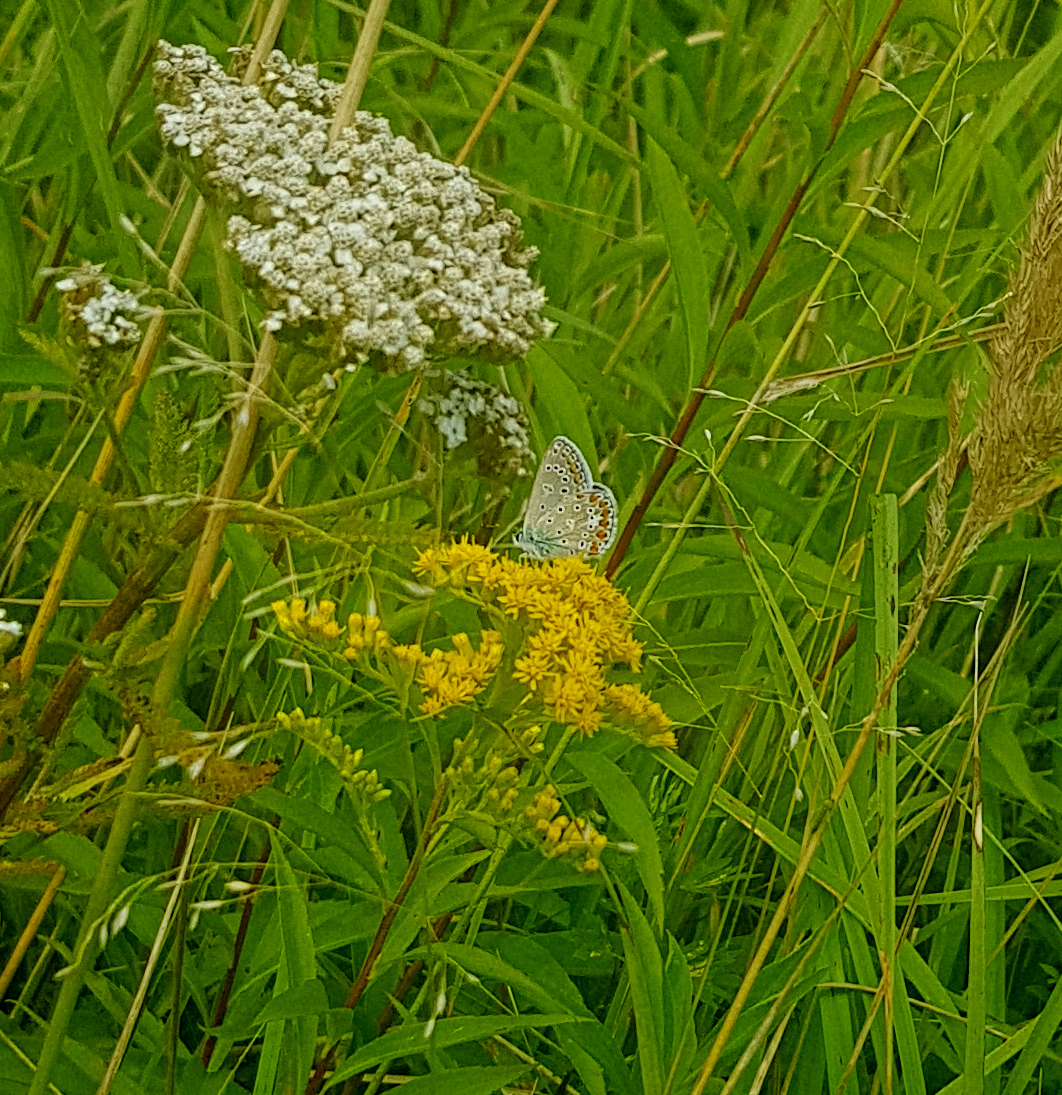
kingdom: Animalia
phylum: Arthropoda
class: Insecta
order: Lepidoptera
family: Lycaenidae
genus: Polyommatus
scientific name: Polyommatus icarus
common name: Common blue
